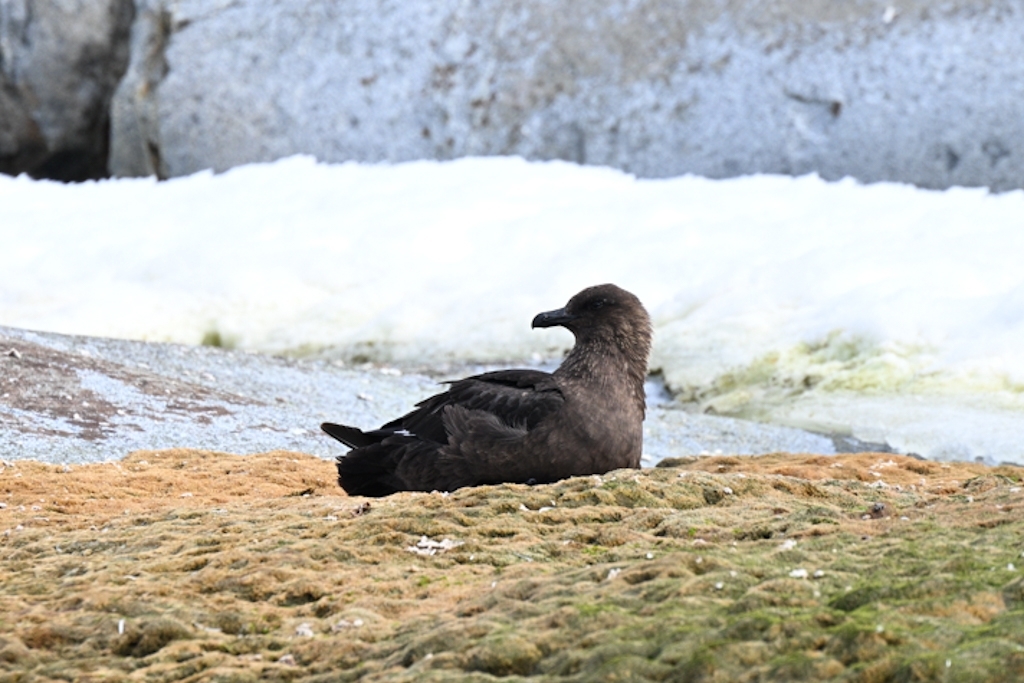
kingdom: Animalia
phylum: Chordata
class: Aves
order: Charadriiformes
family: Stercorariidae
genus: Stercorarius
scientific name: Stercorarius maccormicki
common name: South polar skua
